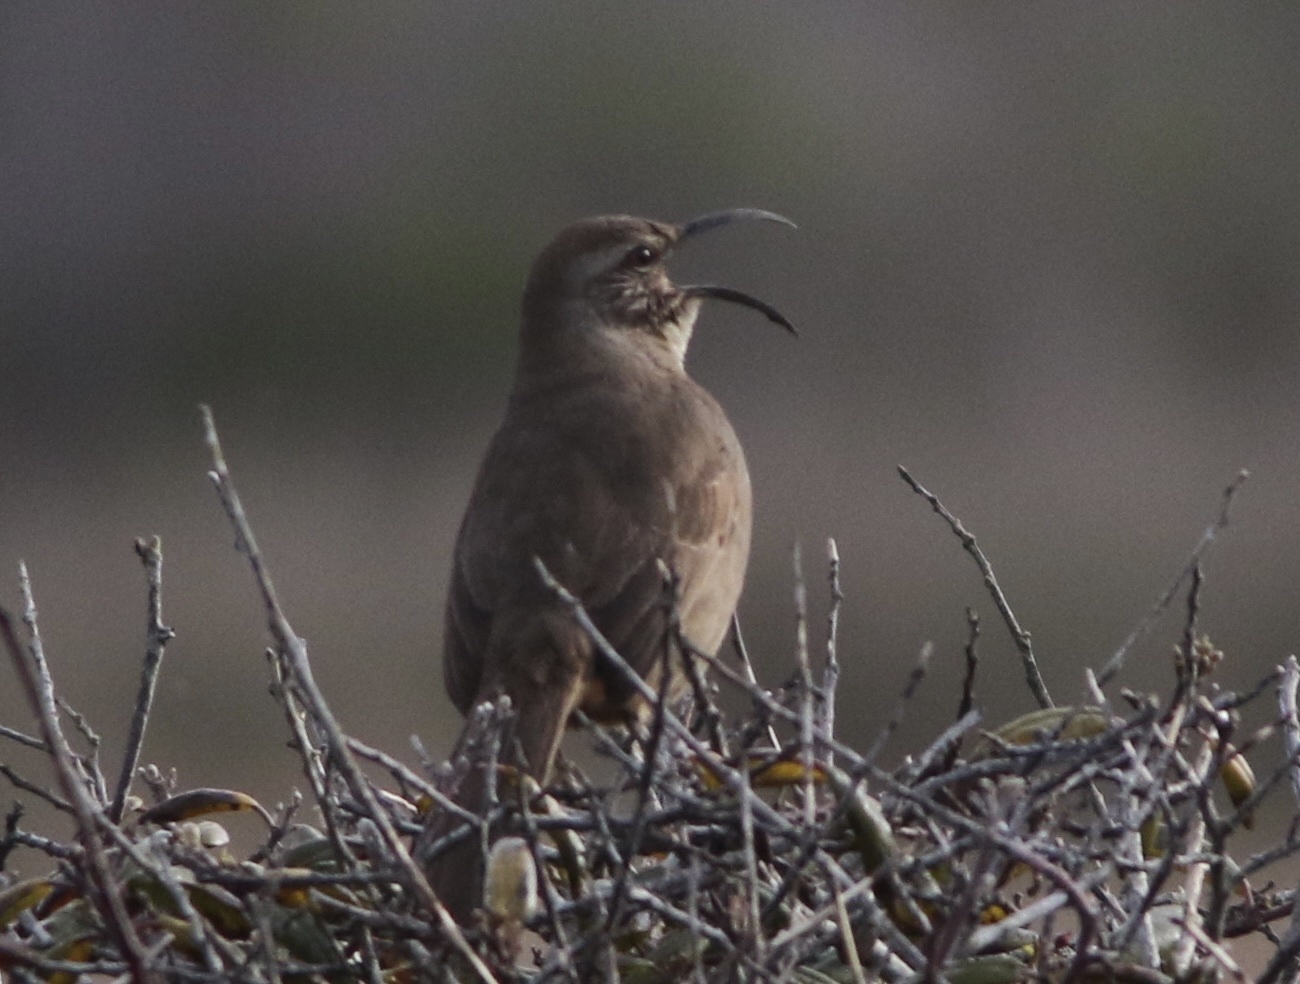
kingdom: Animalia
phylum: Chordata
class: Aves
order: Passeriformes
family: Mimidae
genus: Toxostoma
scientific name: Toxostoma redivivum
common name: California thrasher
